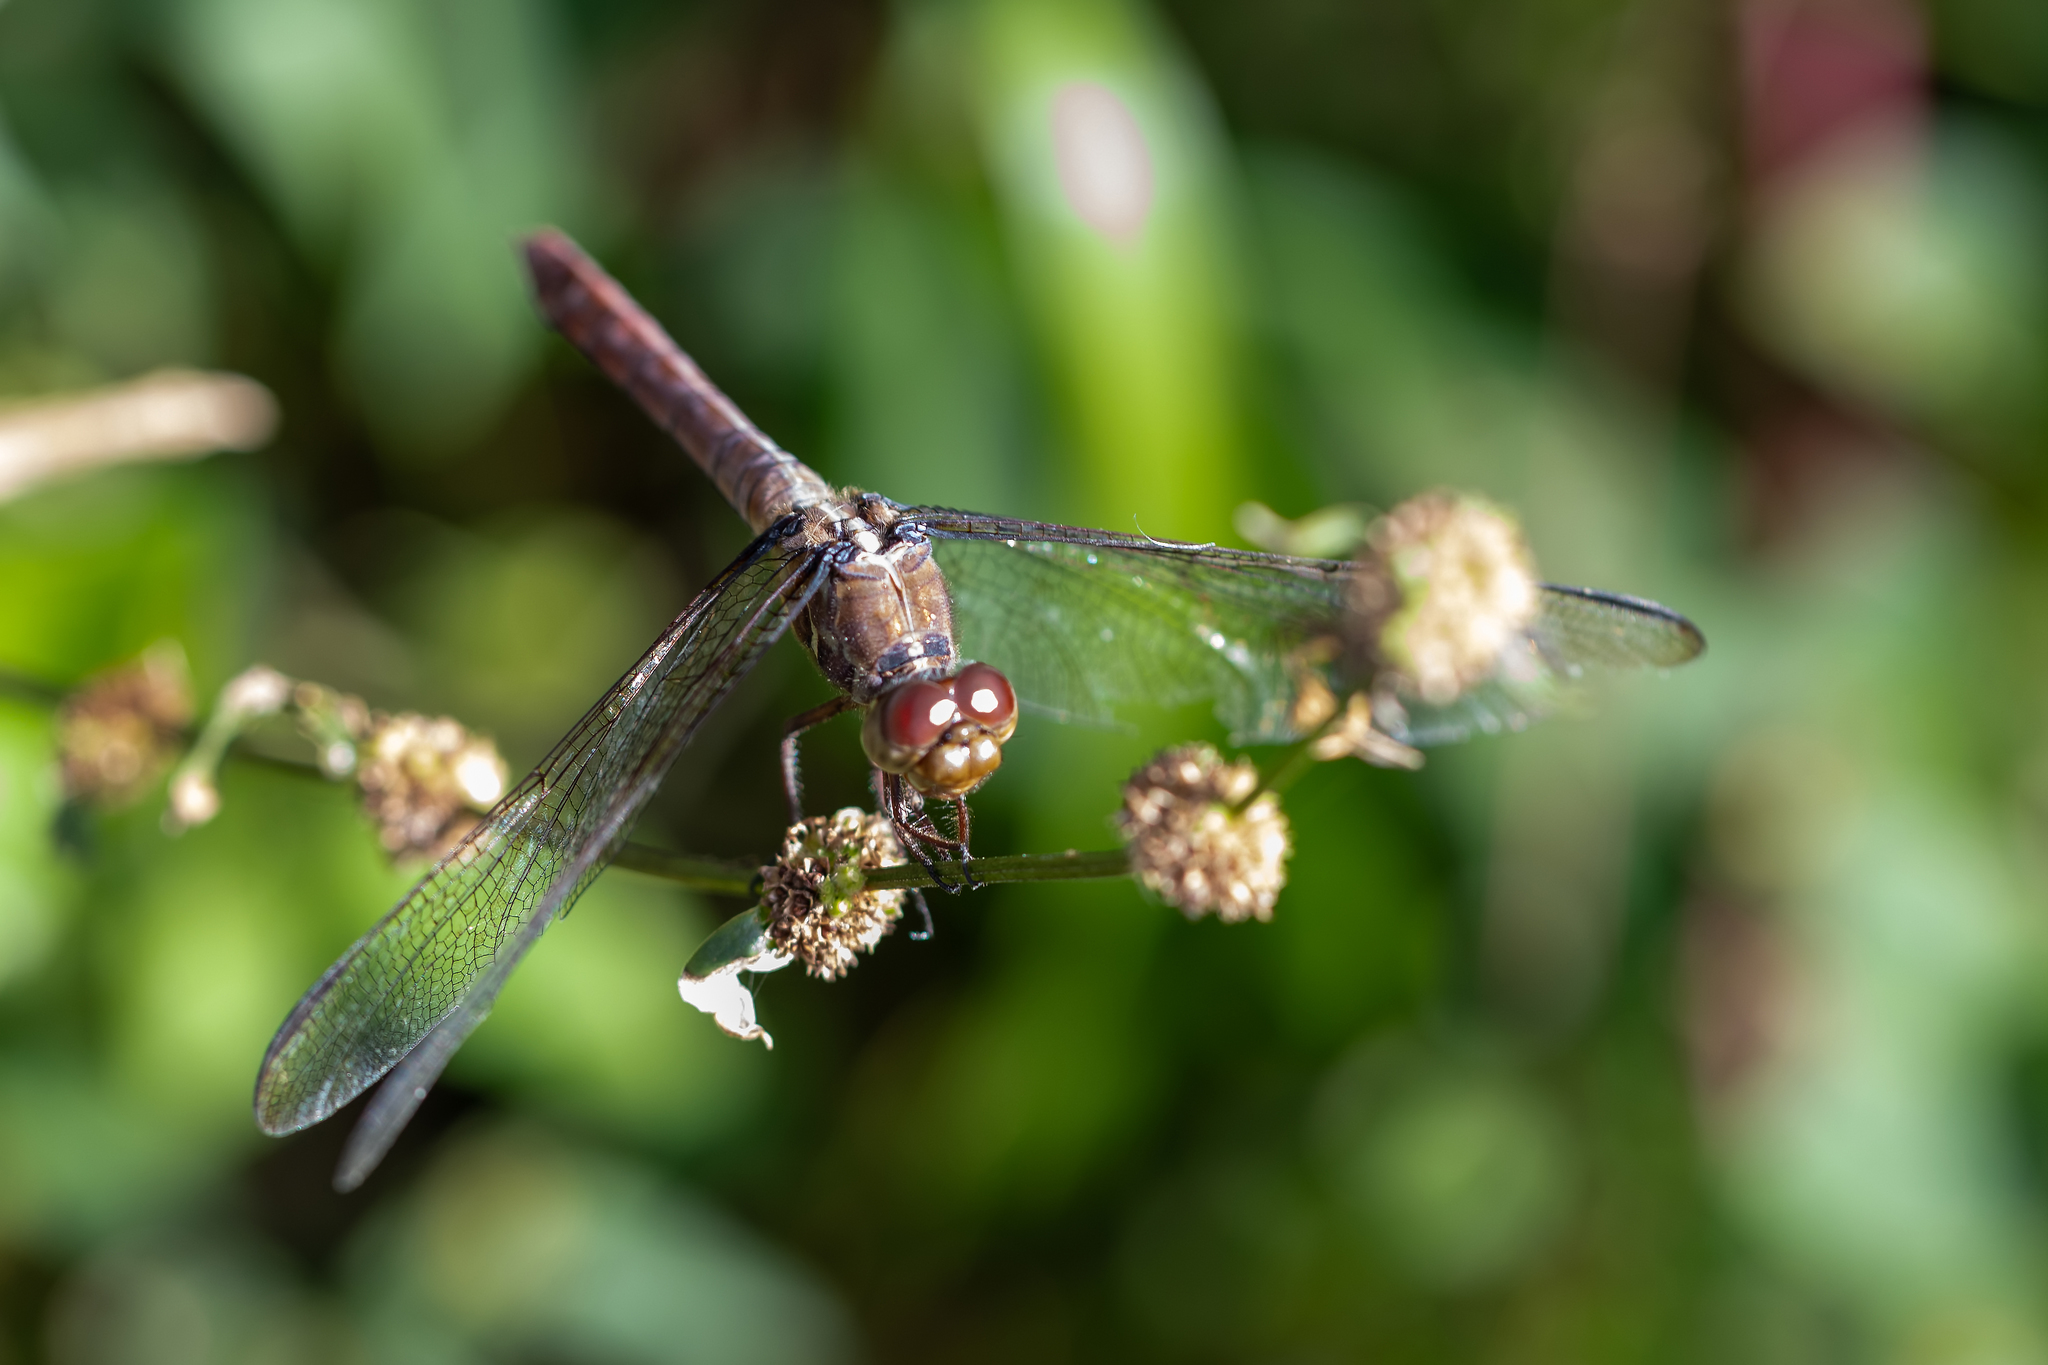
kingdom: Animalia
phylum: Arthropoda
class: Insecta
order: Odonata
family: Libellulidae
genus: Orthemis
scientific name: Orthemis ferruginea
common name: Roseate skimmer
